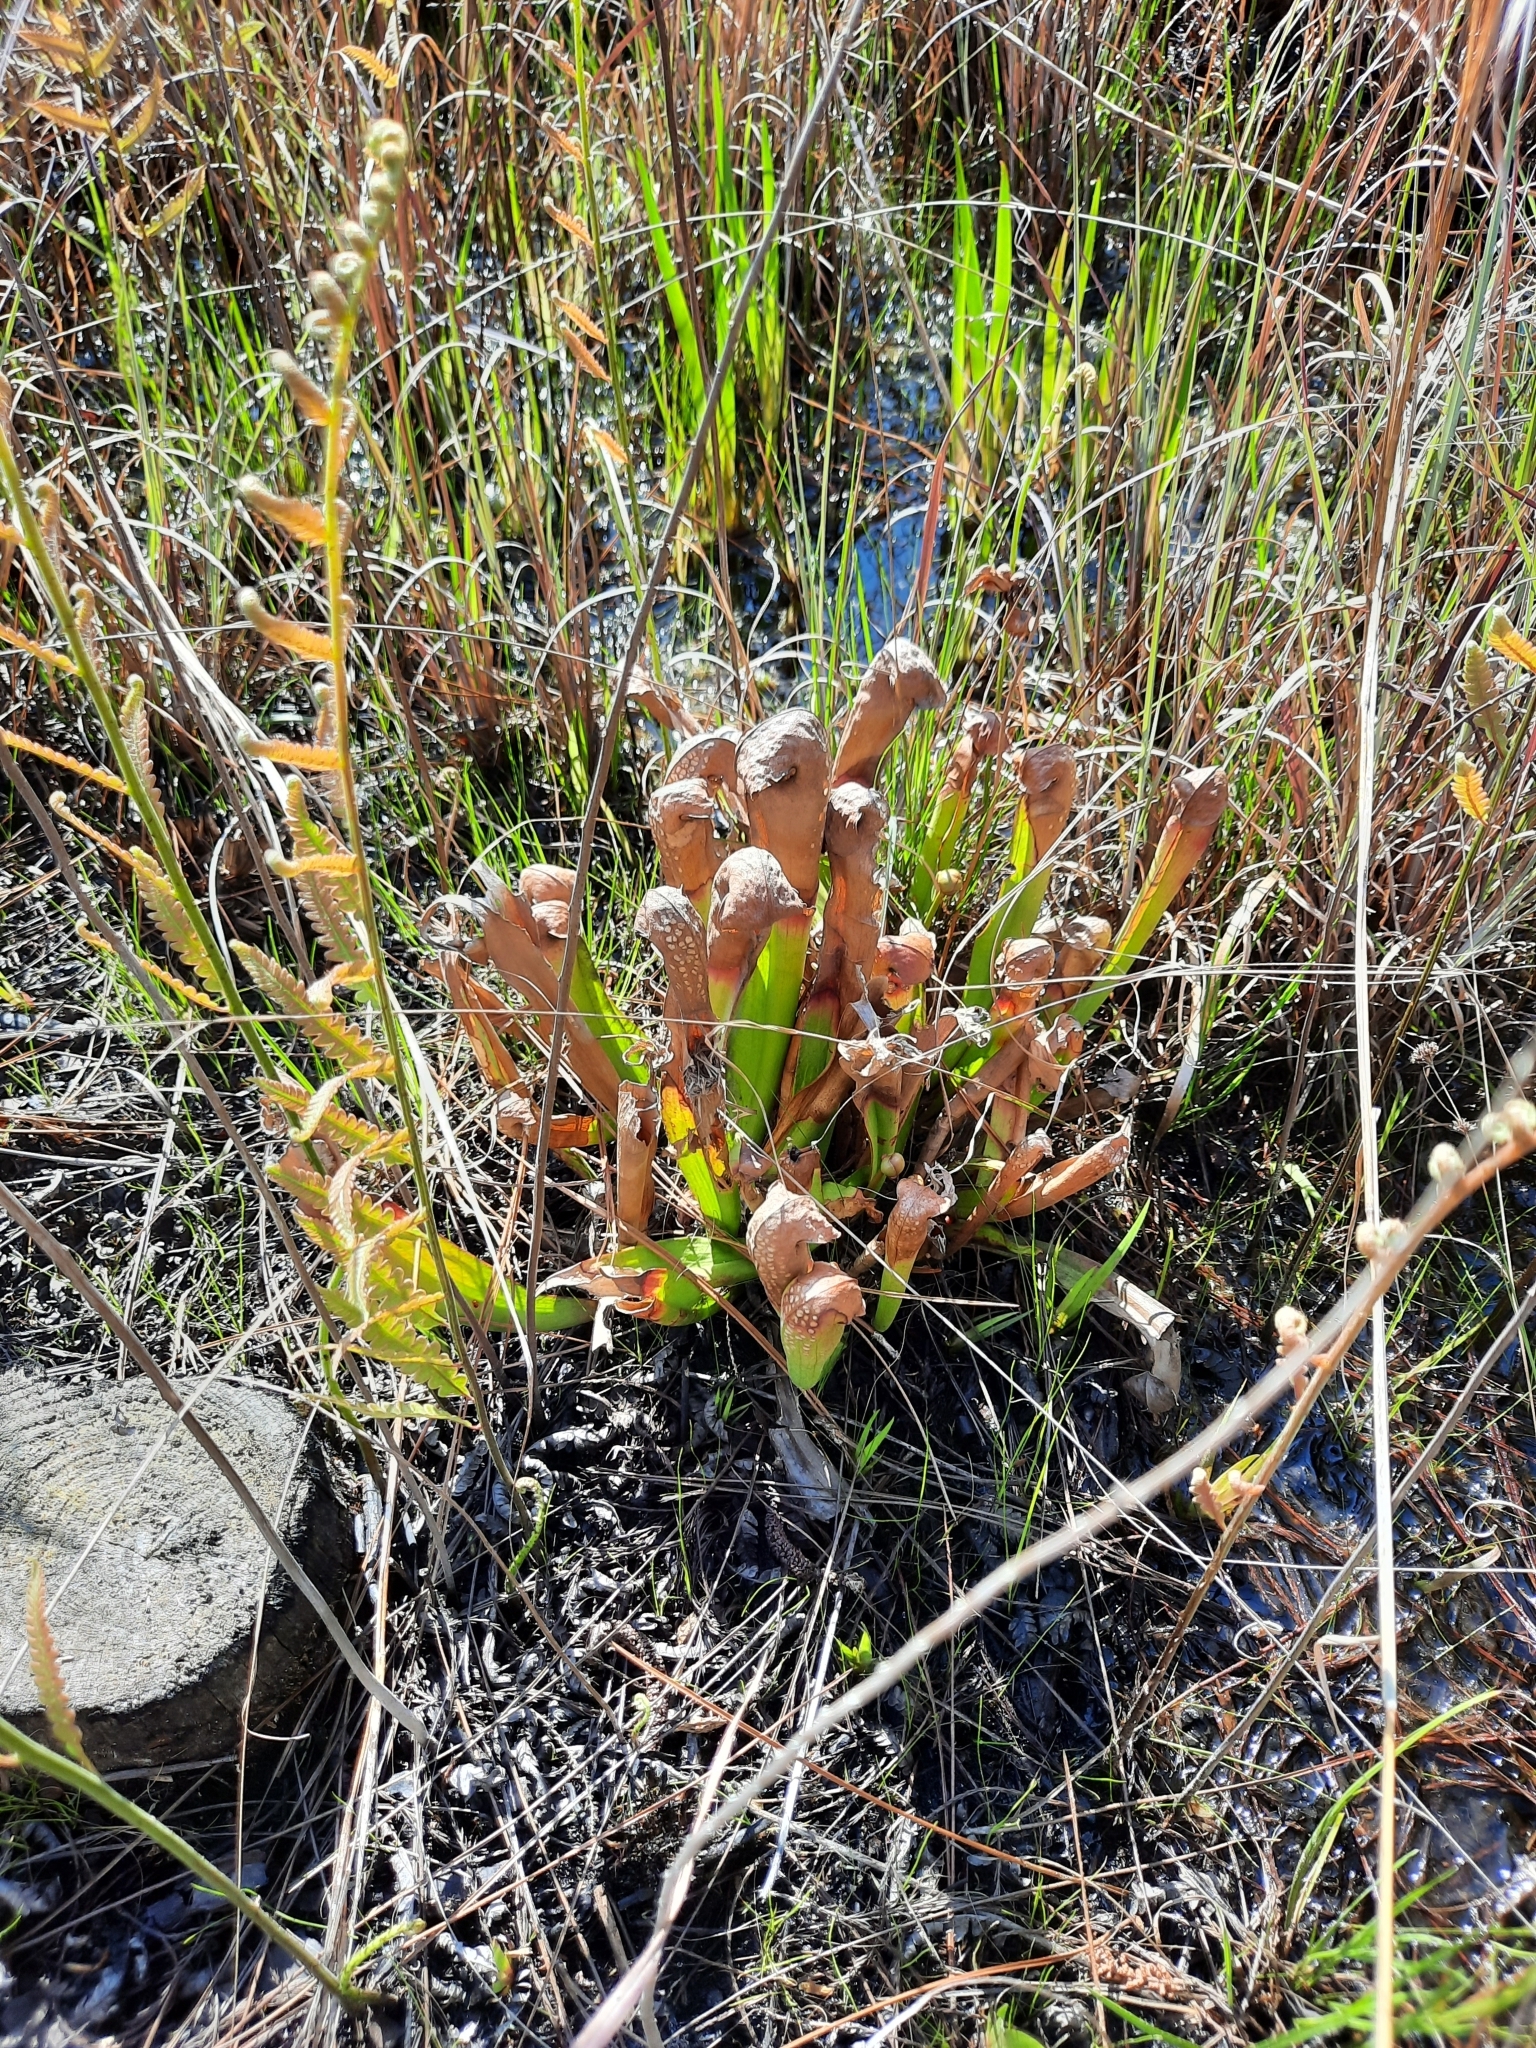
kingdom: Plantae
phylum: Tracheophyta
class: Magnoliopsida
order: Ericales
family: Sarraceniaceae
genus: Sarracenia
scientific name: Sarracenia minor
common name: Rainhat-trumpet
